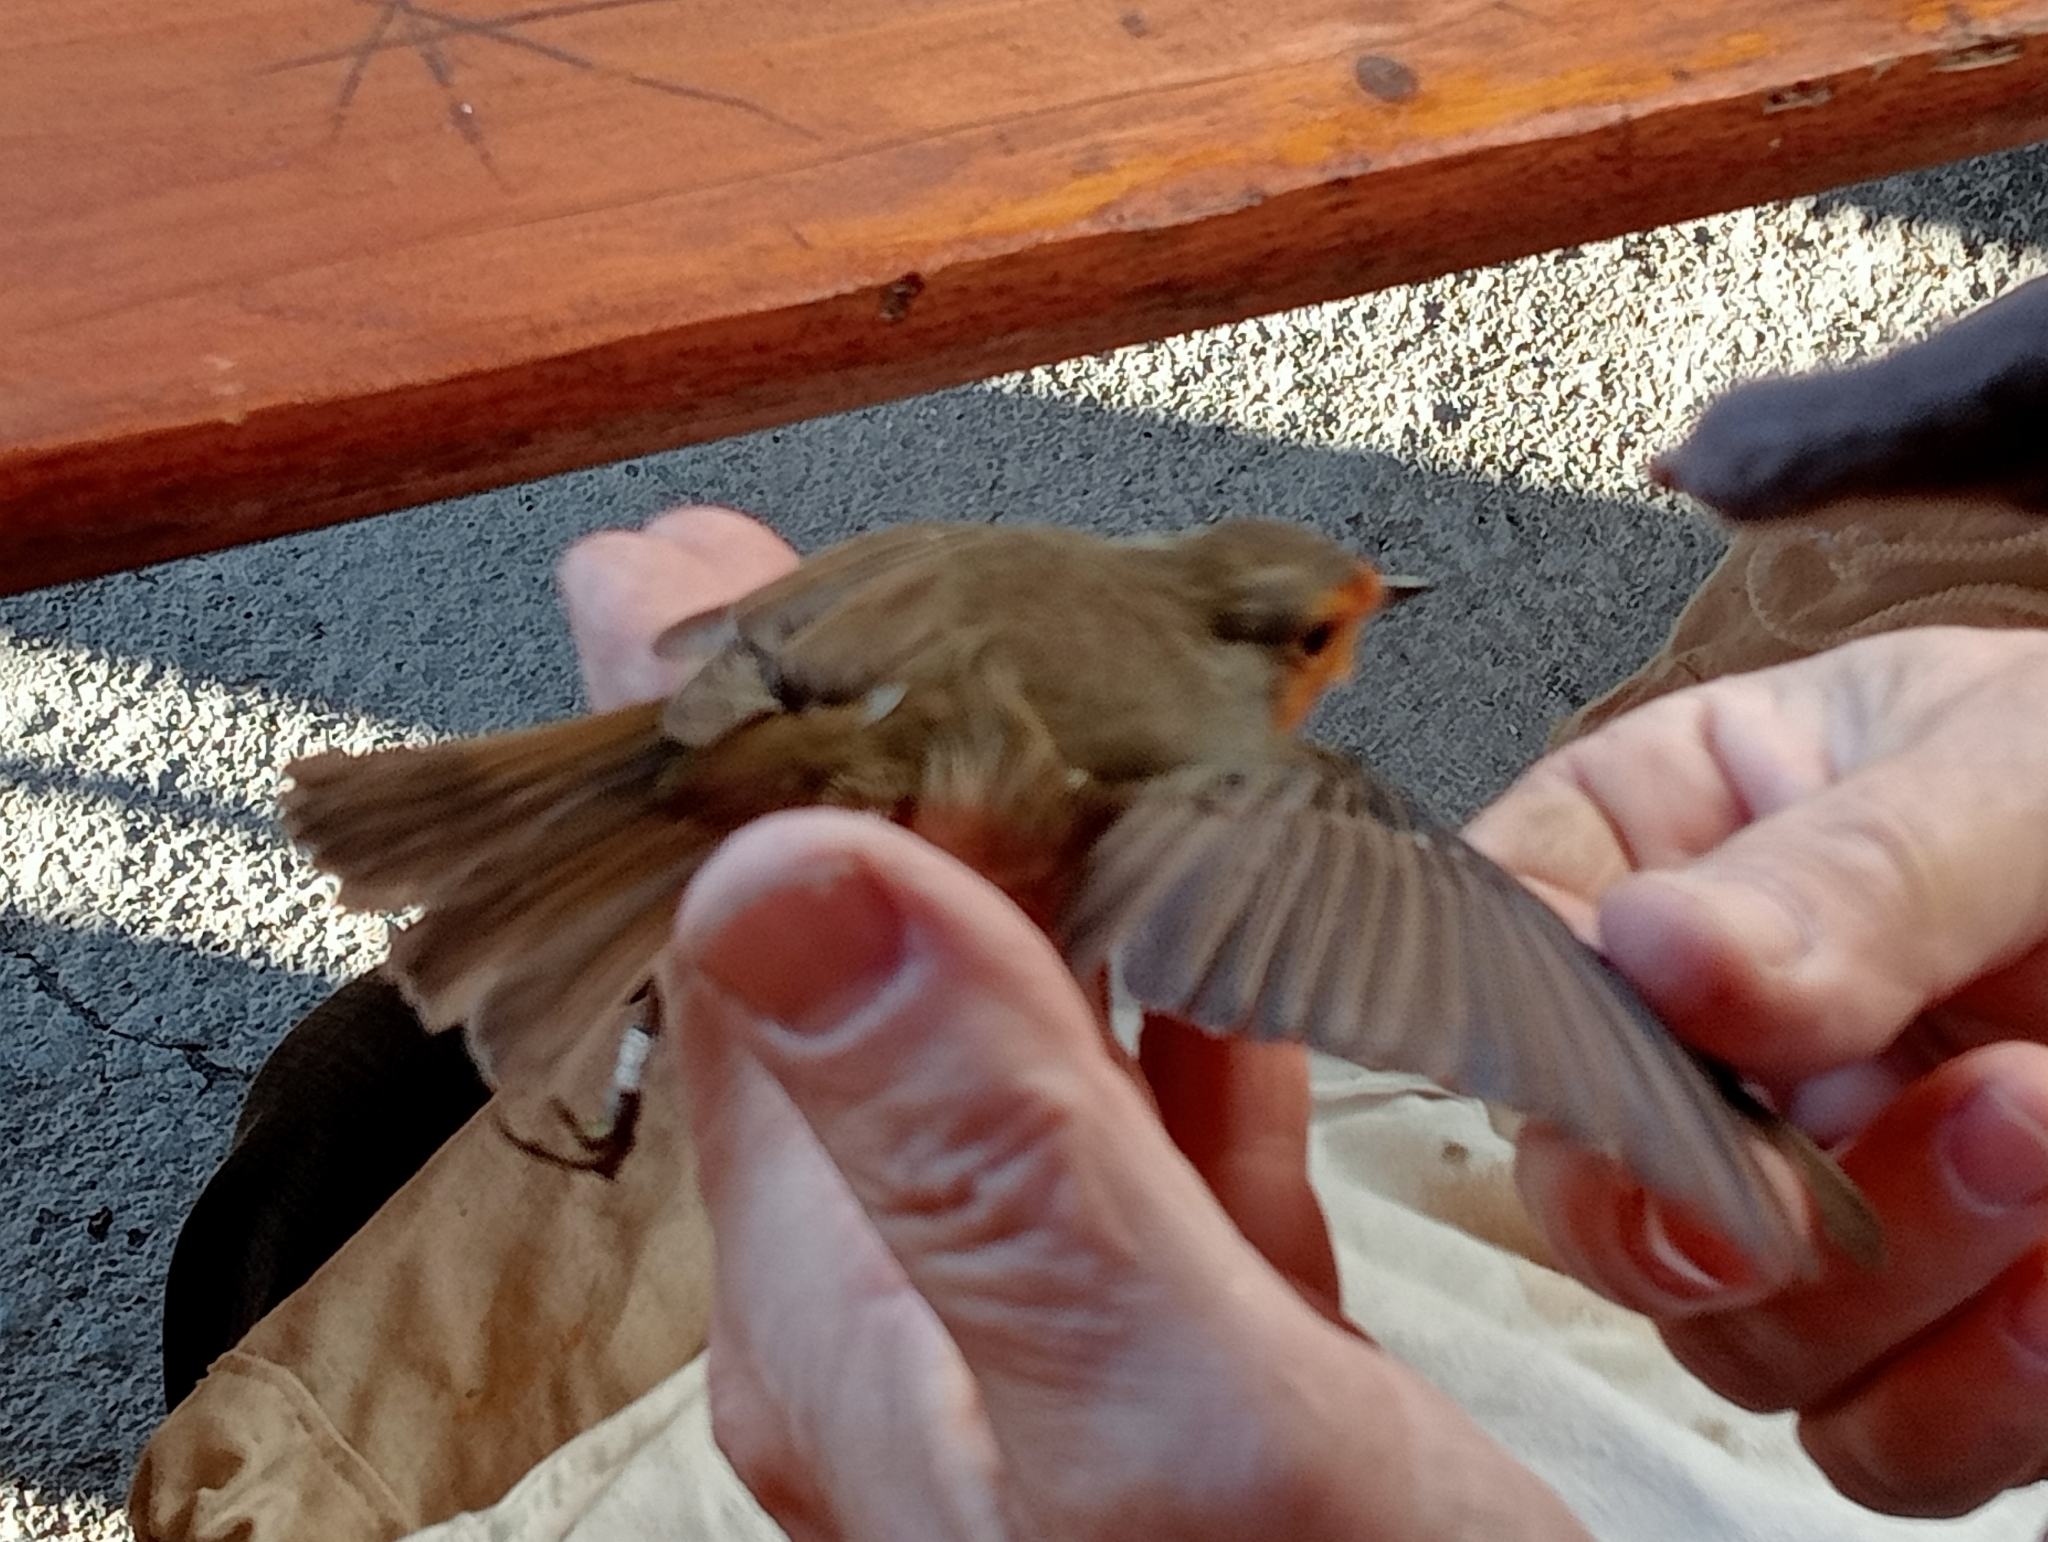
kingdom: Animalia
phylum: Chordata
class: Aves
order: Passeriformes
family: Muscicapidae
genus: Erithacus
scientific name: Erithacus rubecula
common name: European robin
